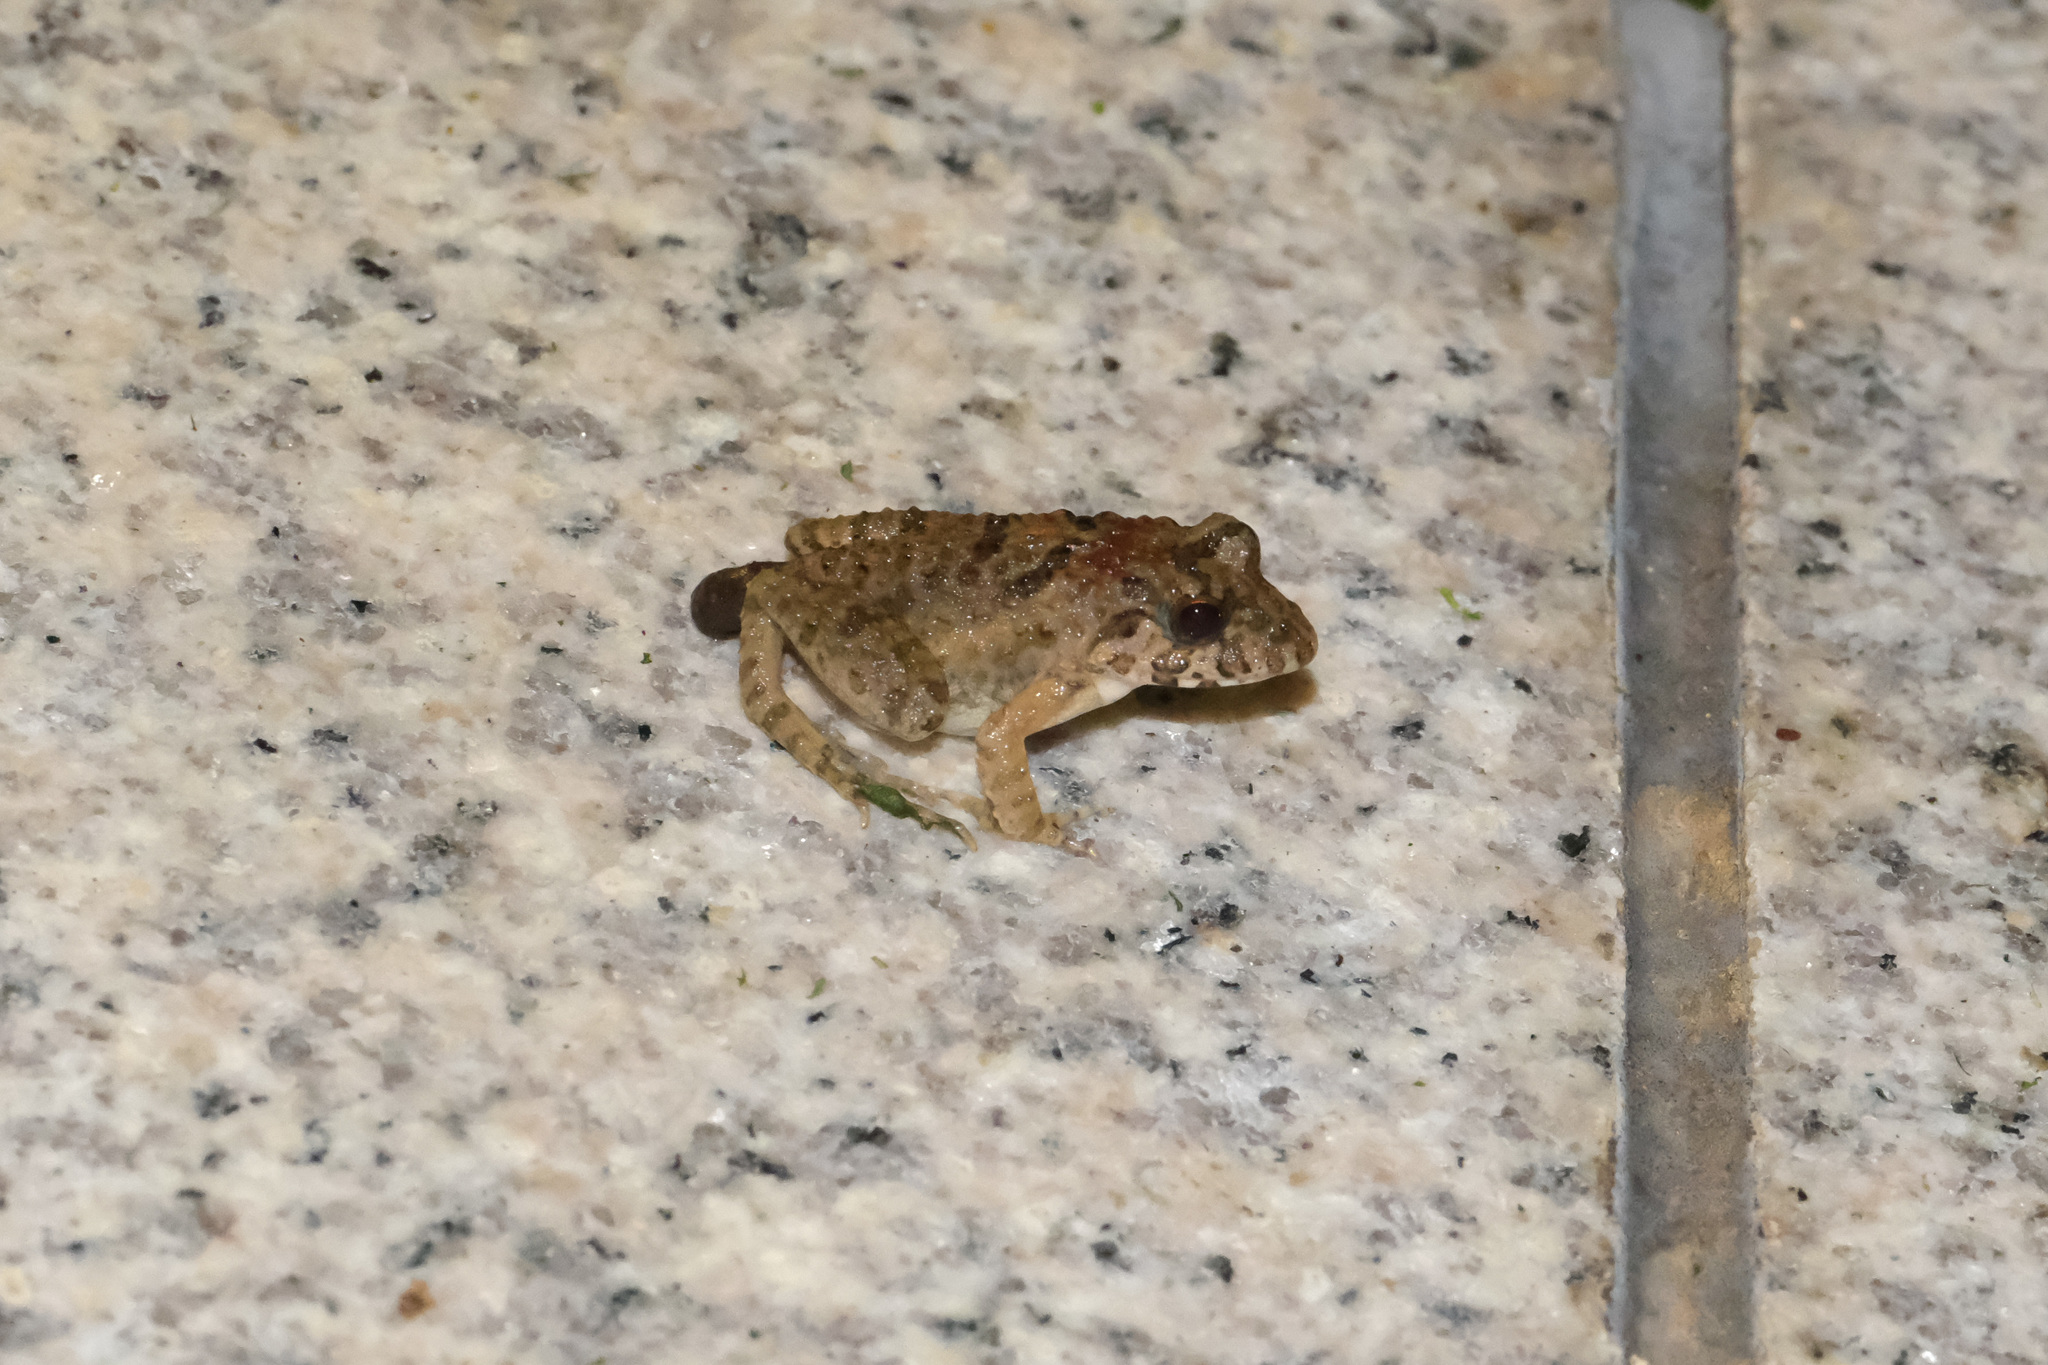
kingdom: Animalia
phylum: Chordata
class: Amphibia
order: Anura
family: Dicroglossidae
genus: Fejervarya
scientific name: Fejervarya multistriata
